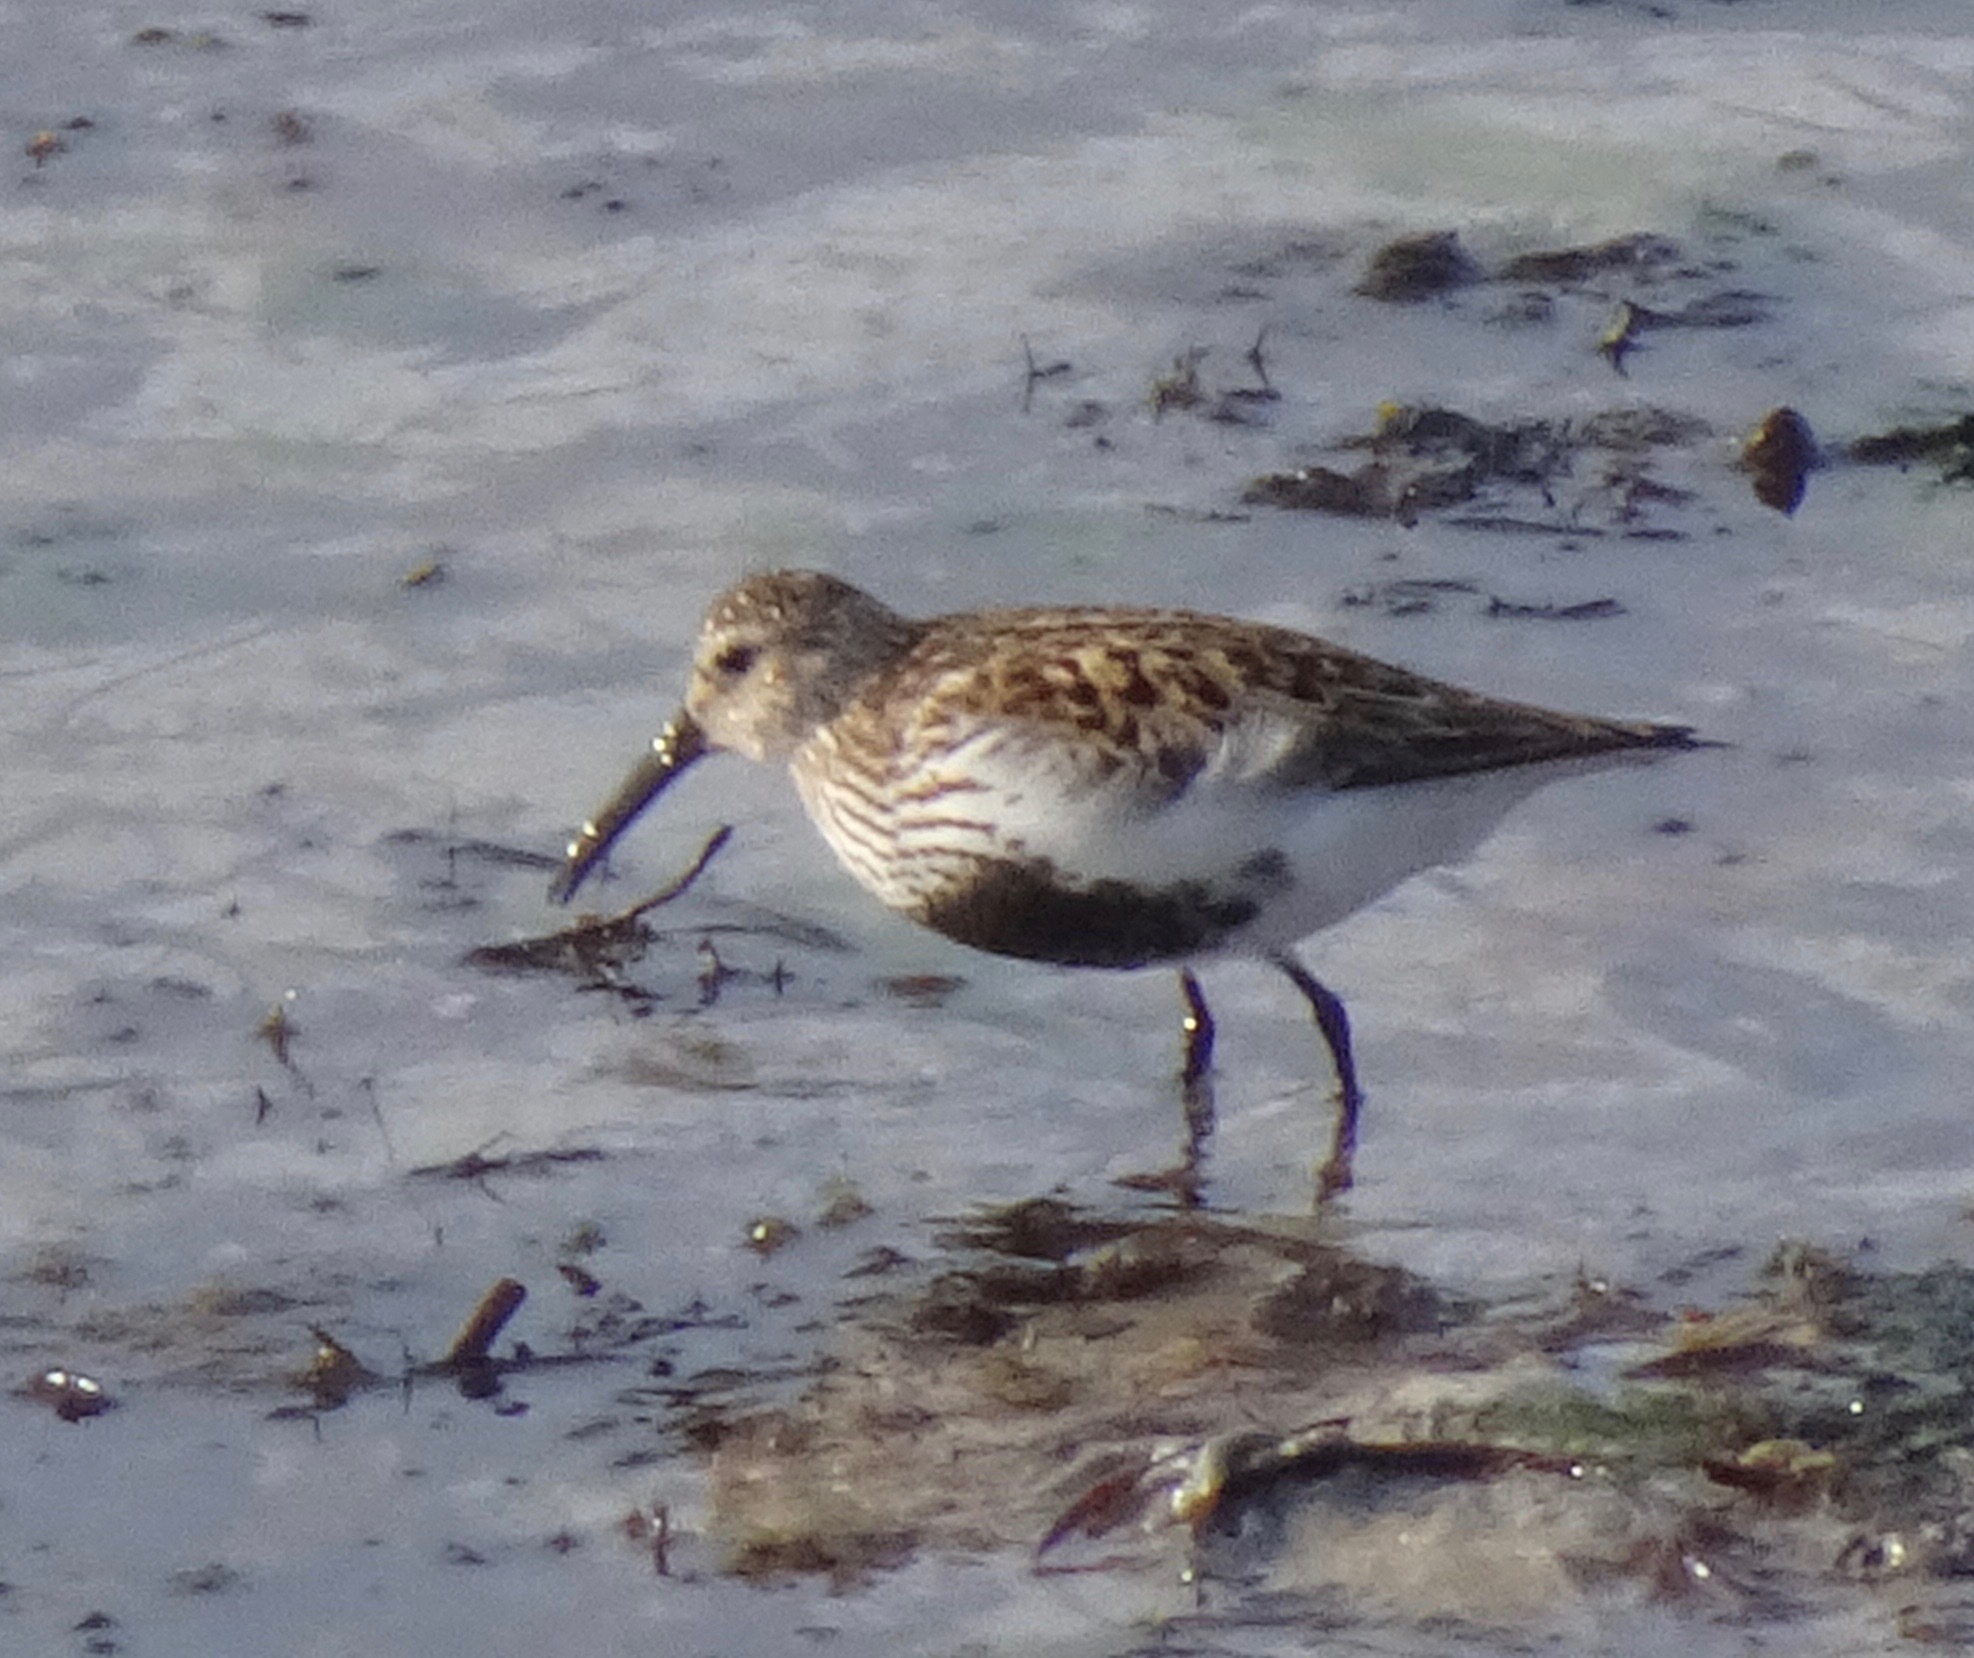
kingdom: Animalia
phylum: Chordata
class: Aves
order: Charadriiformes
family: Scolopacidae
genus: Calidris
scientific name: Calidris alpina
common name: Dunlin
